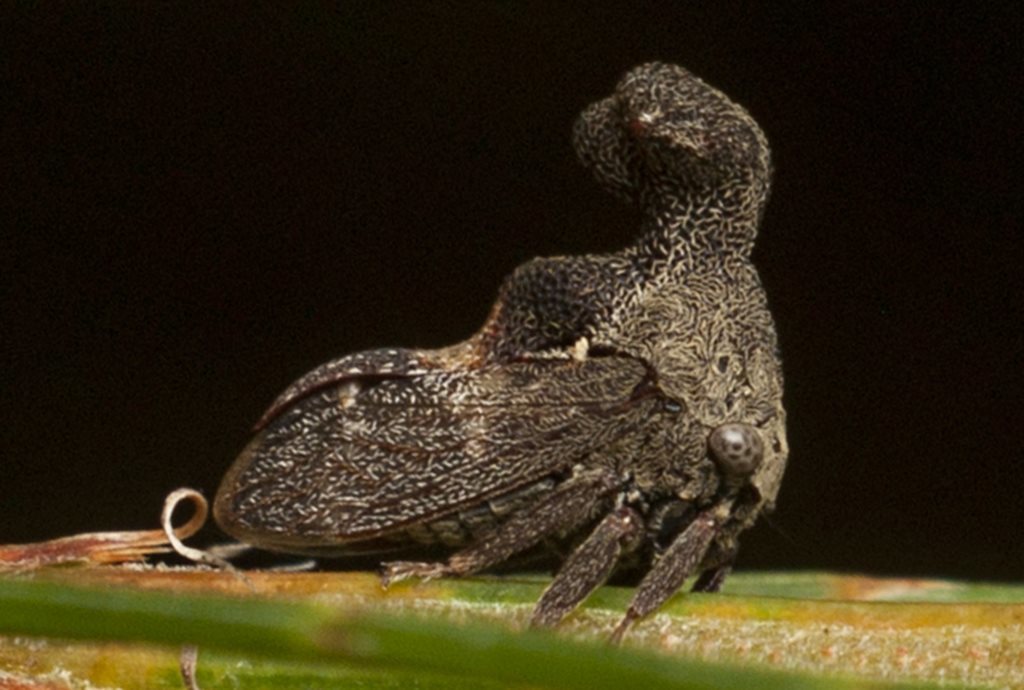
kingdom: Animalia
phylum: Arthropoda
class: Insecta
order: Hemiptera
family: Membracidae
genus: Eutryonia
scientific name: Eutryonia monstrifer
